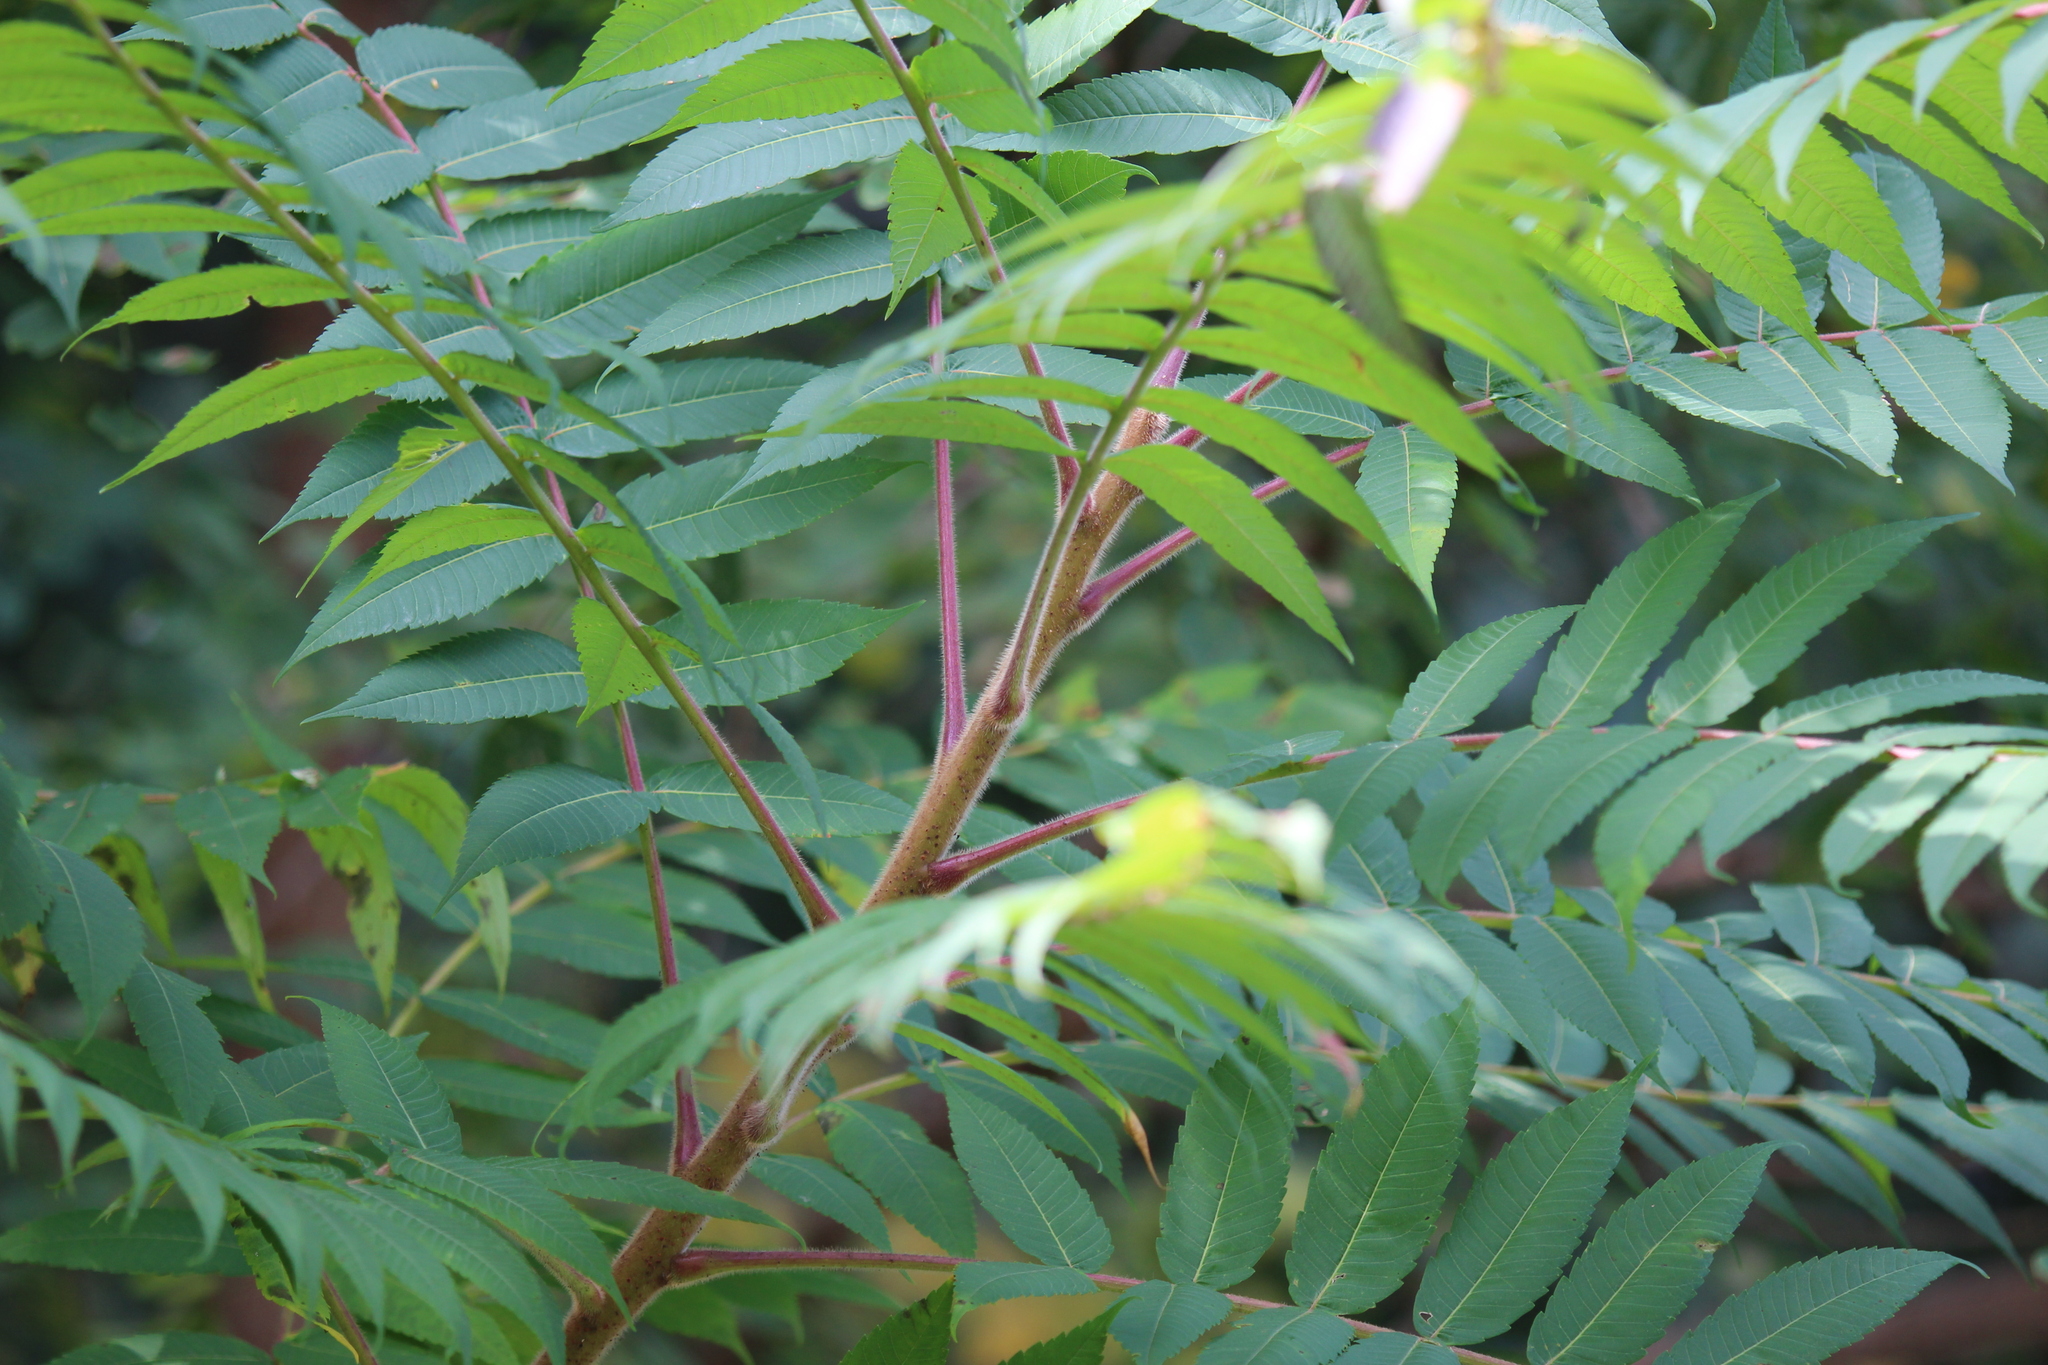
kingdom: Plantae
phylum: Tracheophyta
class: Magnoliopsida
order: Sapindales
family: Anacardiaceae
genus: Rhus
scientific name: Rhus typhina
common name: Staghorn sumac
